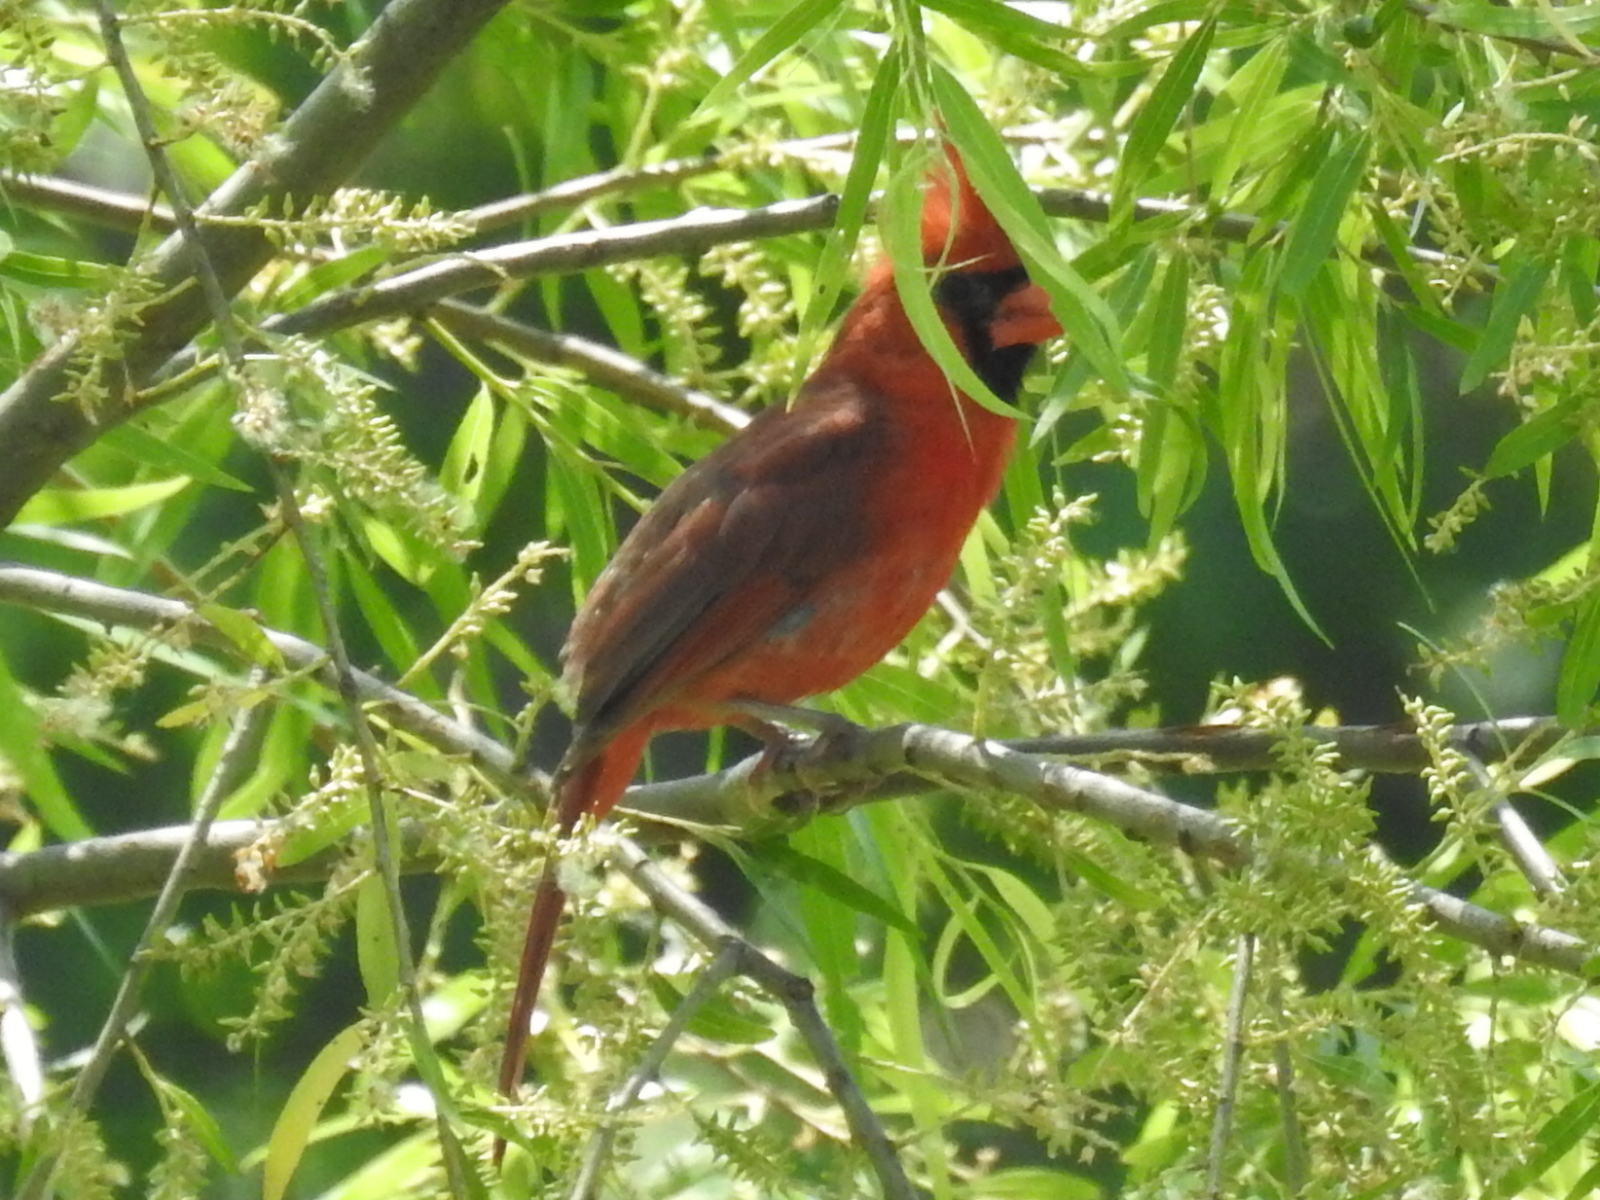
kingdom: Animalia
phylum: Chordata
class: Aves
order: Passeriformes
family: Cardinalidae
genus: Cardinalis
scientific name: Cardinalis cardinalis
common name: Northern cardinal
